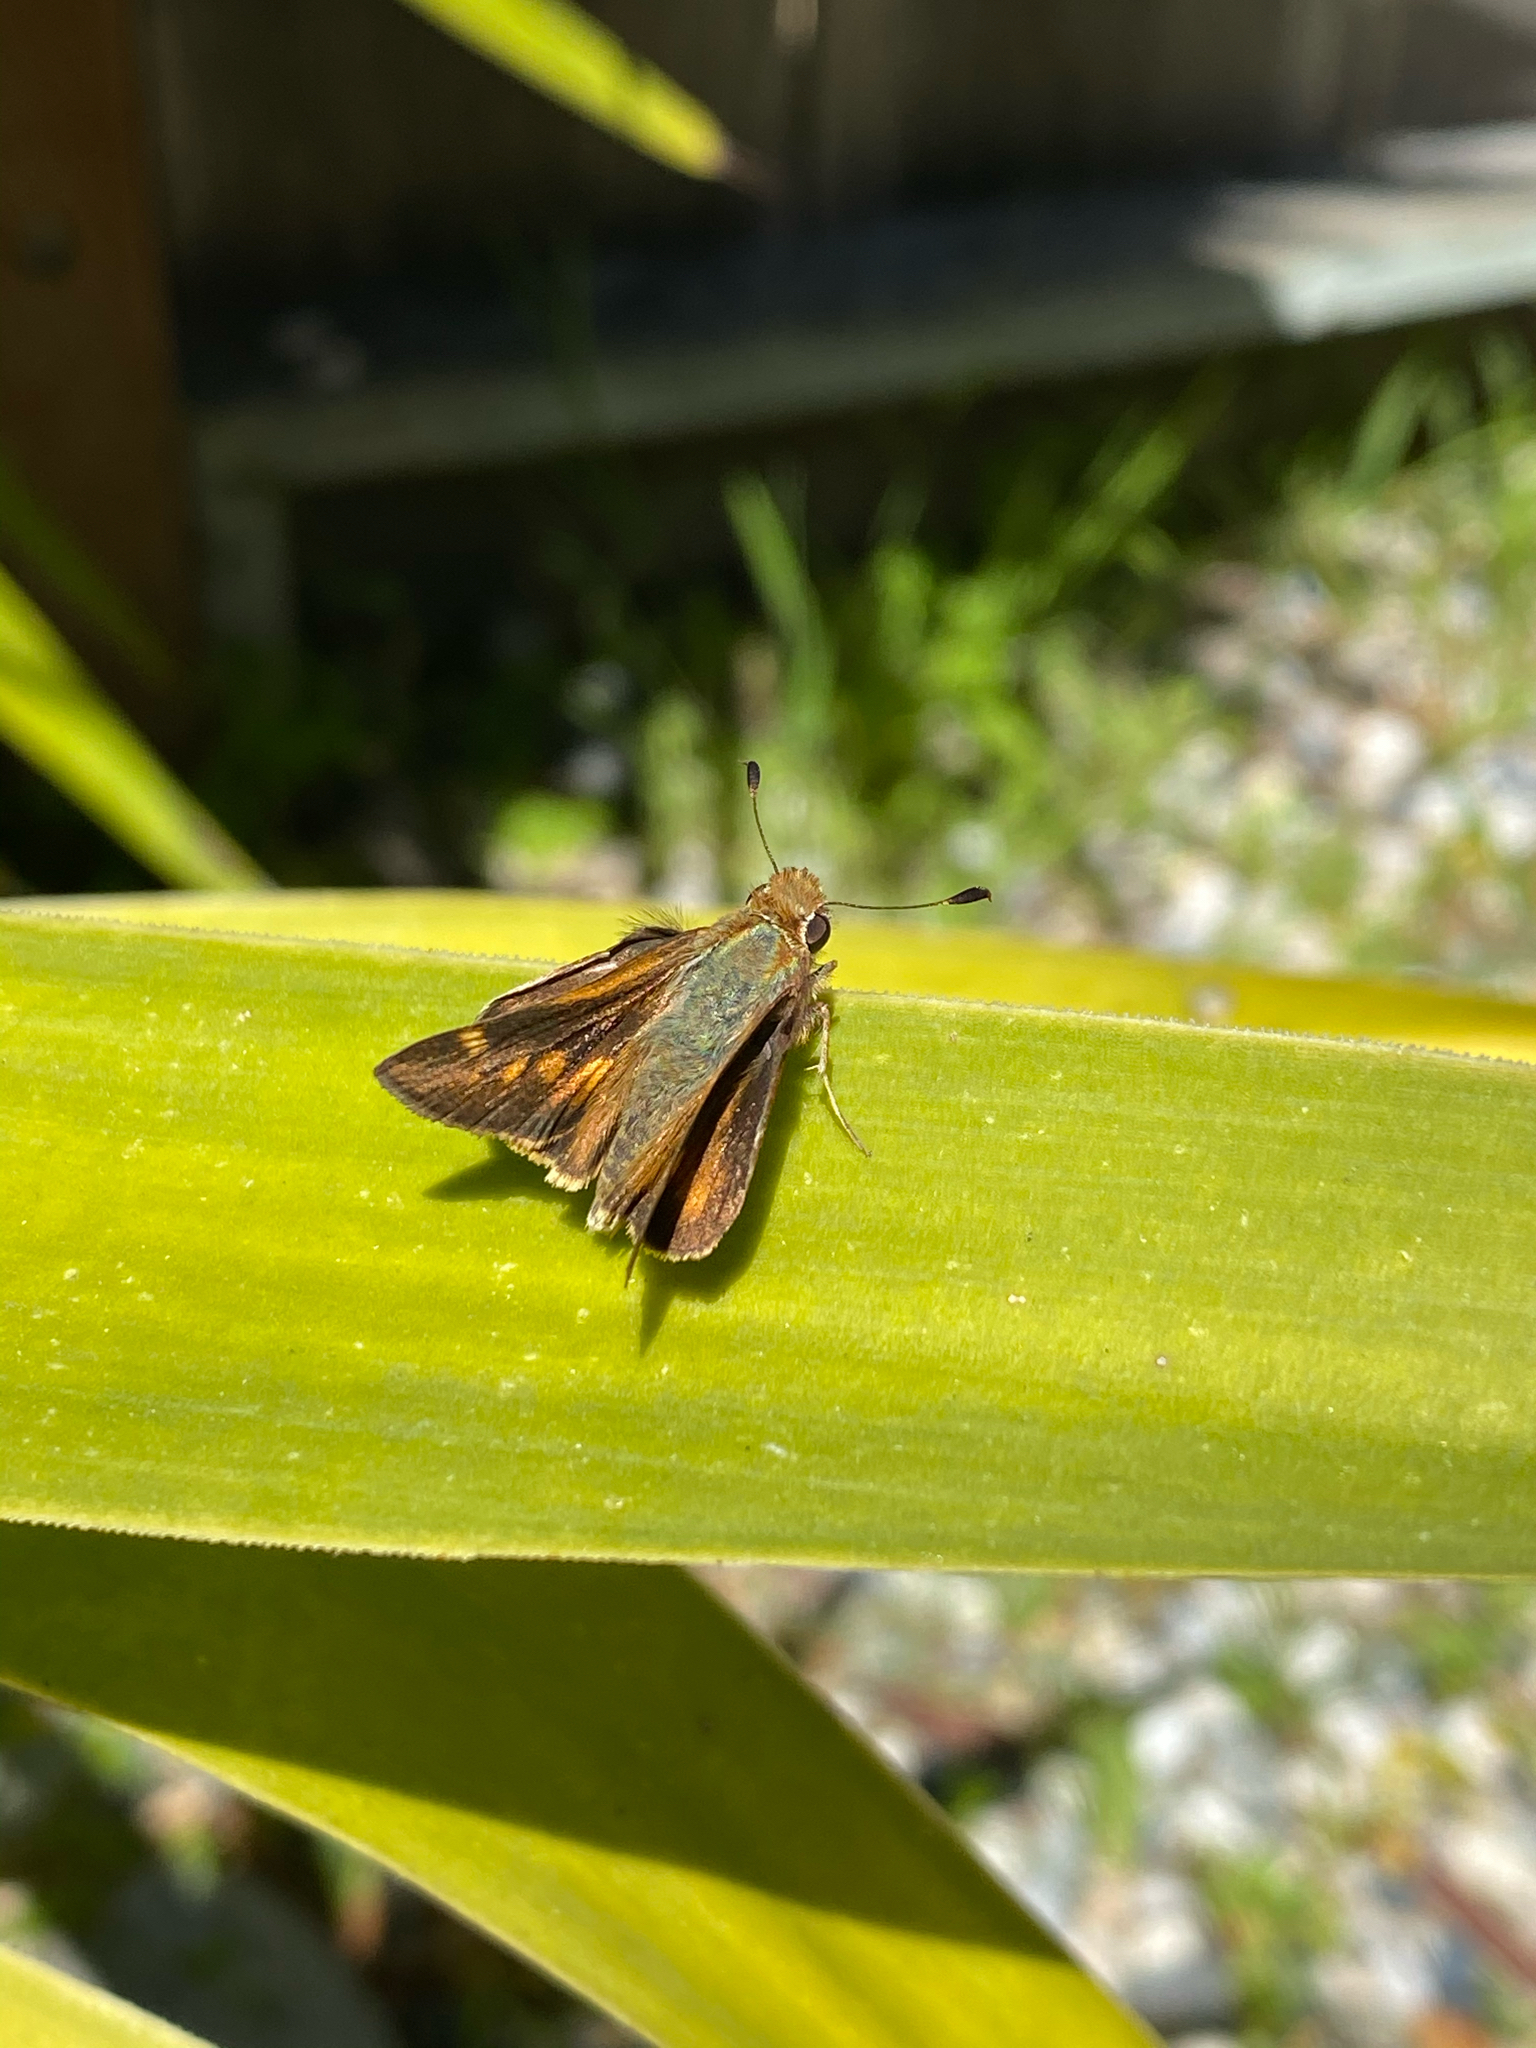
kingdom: Animalia
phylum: Arthropoda
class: Insecta
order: Lepidoptera
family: Hesperiidae
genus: Lon
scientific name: Lon melane
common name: Umber skipper
